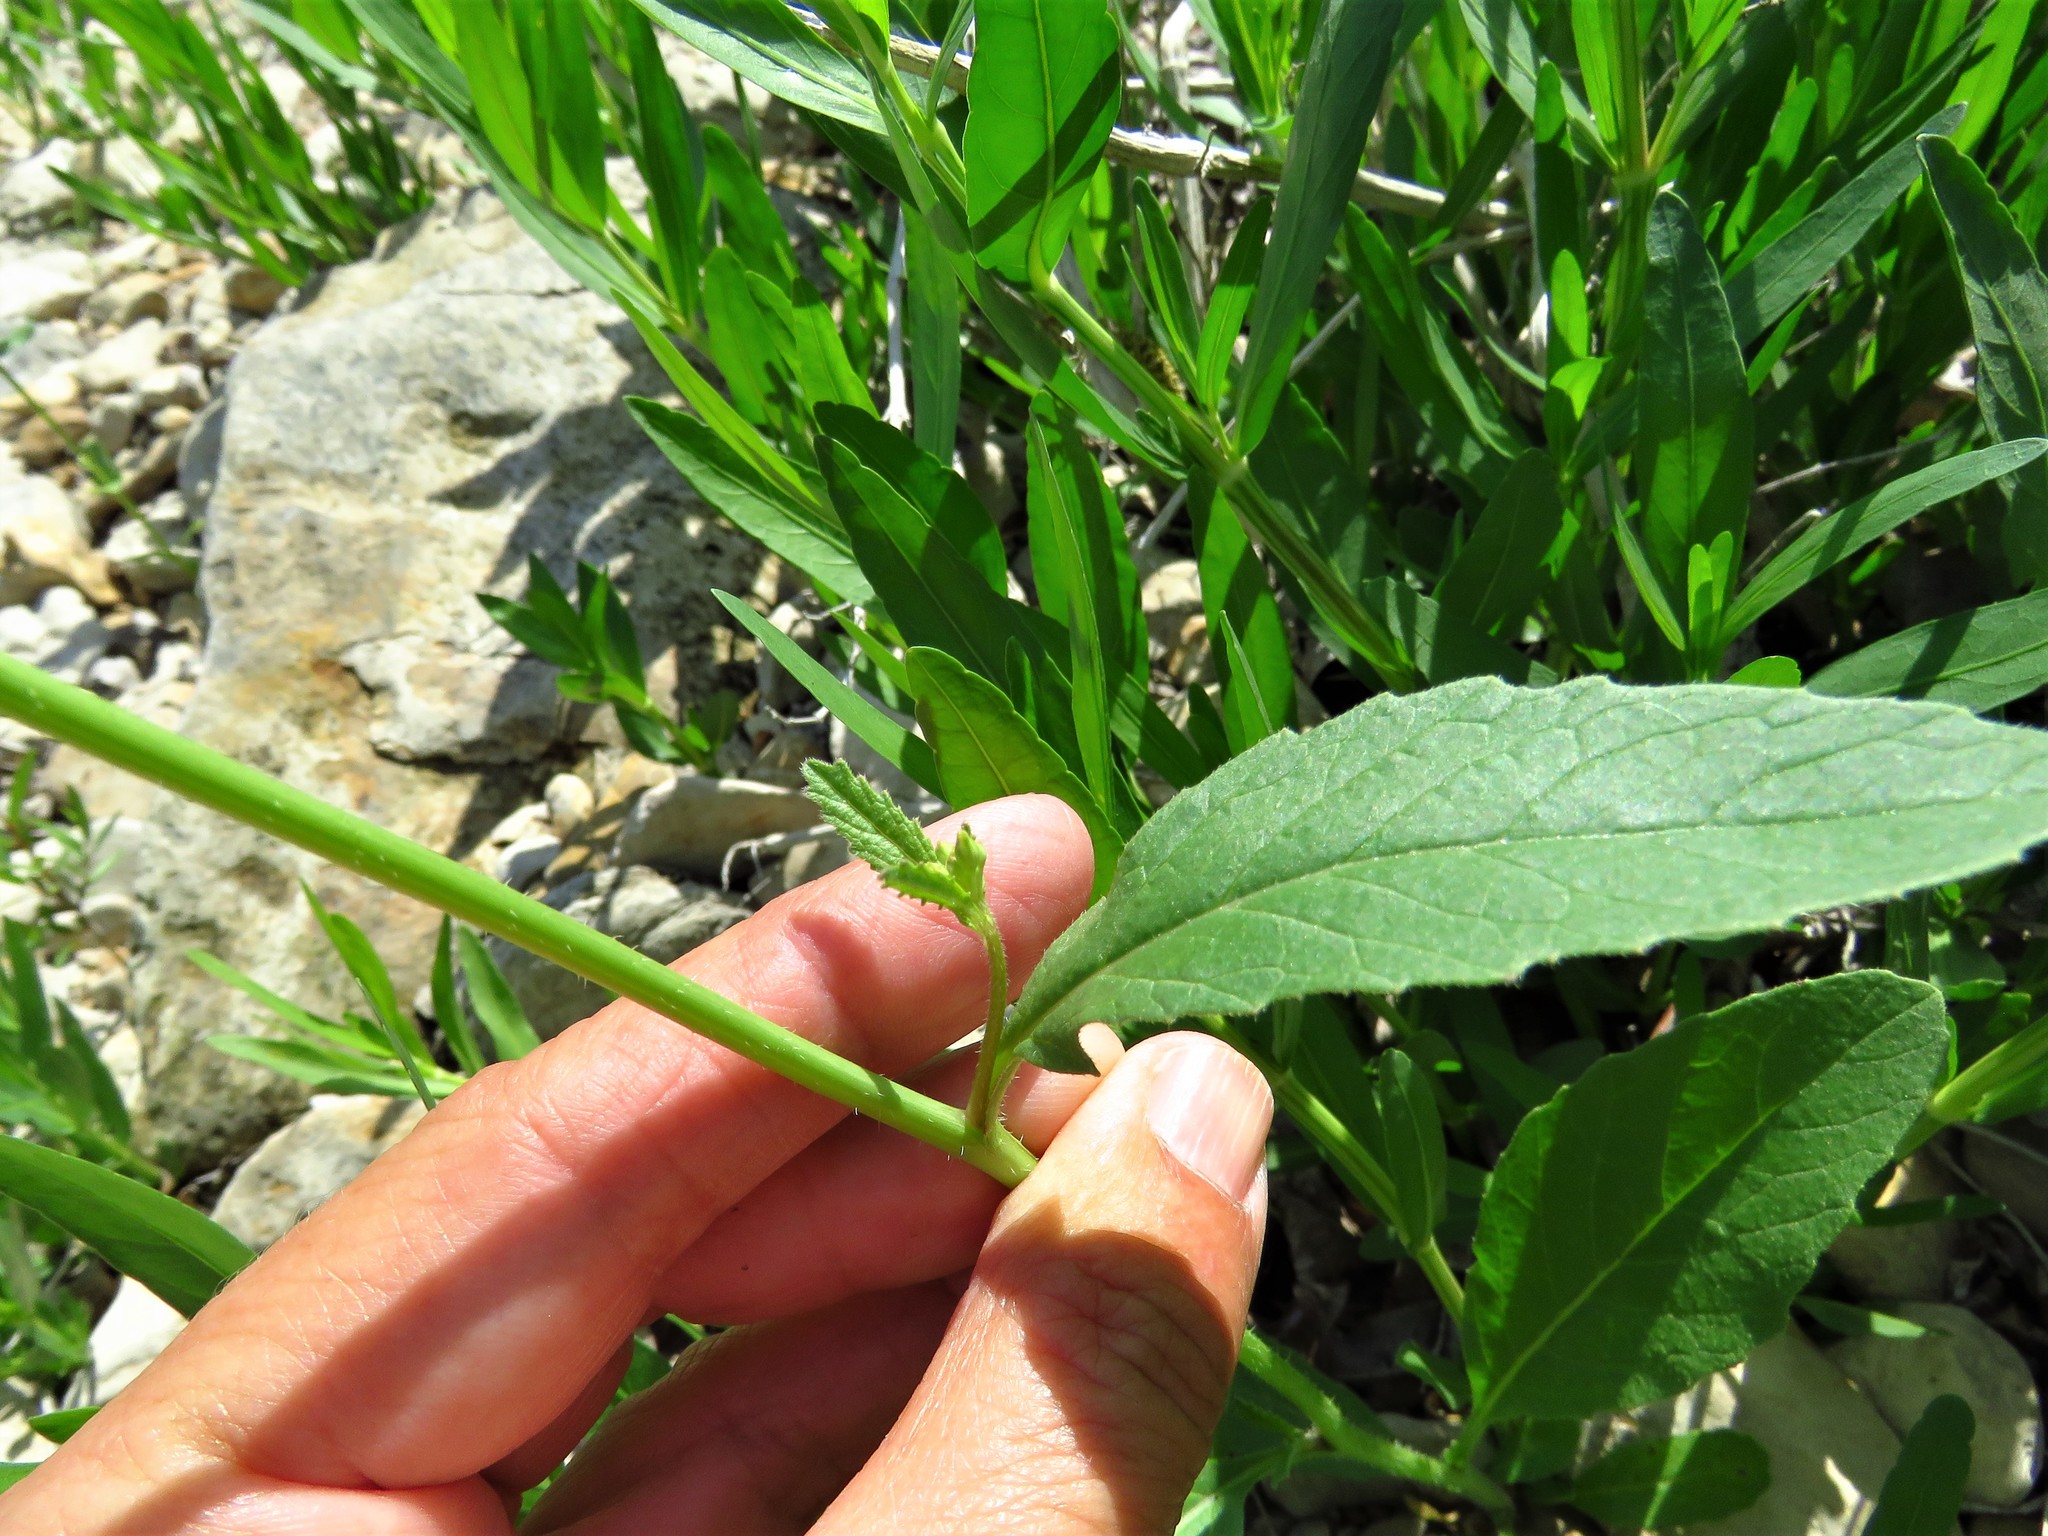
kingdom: Plantae
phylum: Tracheophyta
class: Magnoliopsida
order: Brassicales
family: Brassicaceae
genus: Rapistrum
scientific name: Rapistrum rugosum
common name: Annual bastardcabbage
